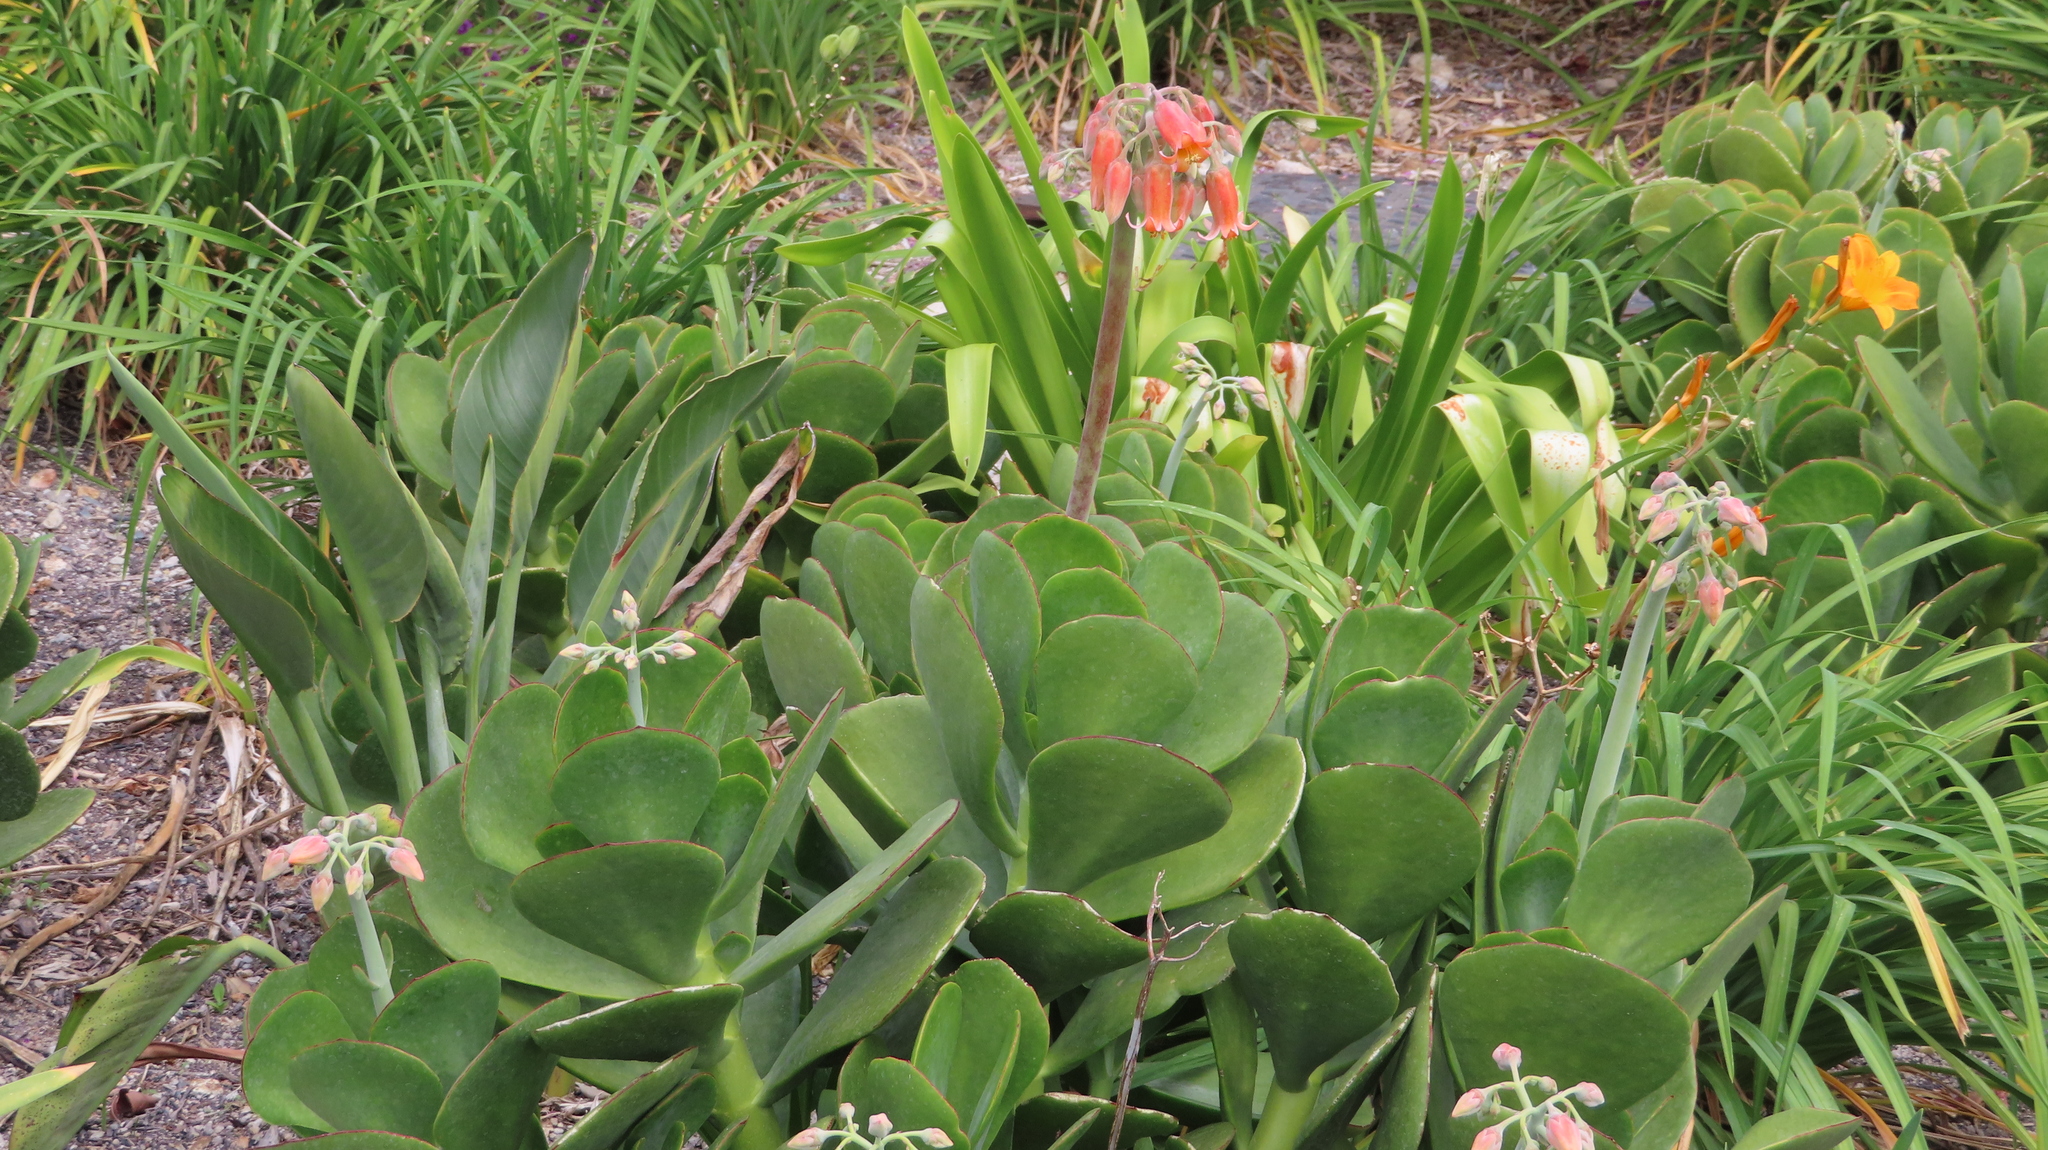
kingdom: Plantae
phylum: Tracheophyta
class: Magnoliopsida
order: Saxifragales
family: Crassulaceae
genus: Cotyledon
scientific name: Cotyledon orbiculata
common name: Pig's ear
